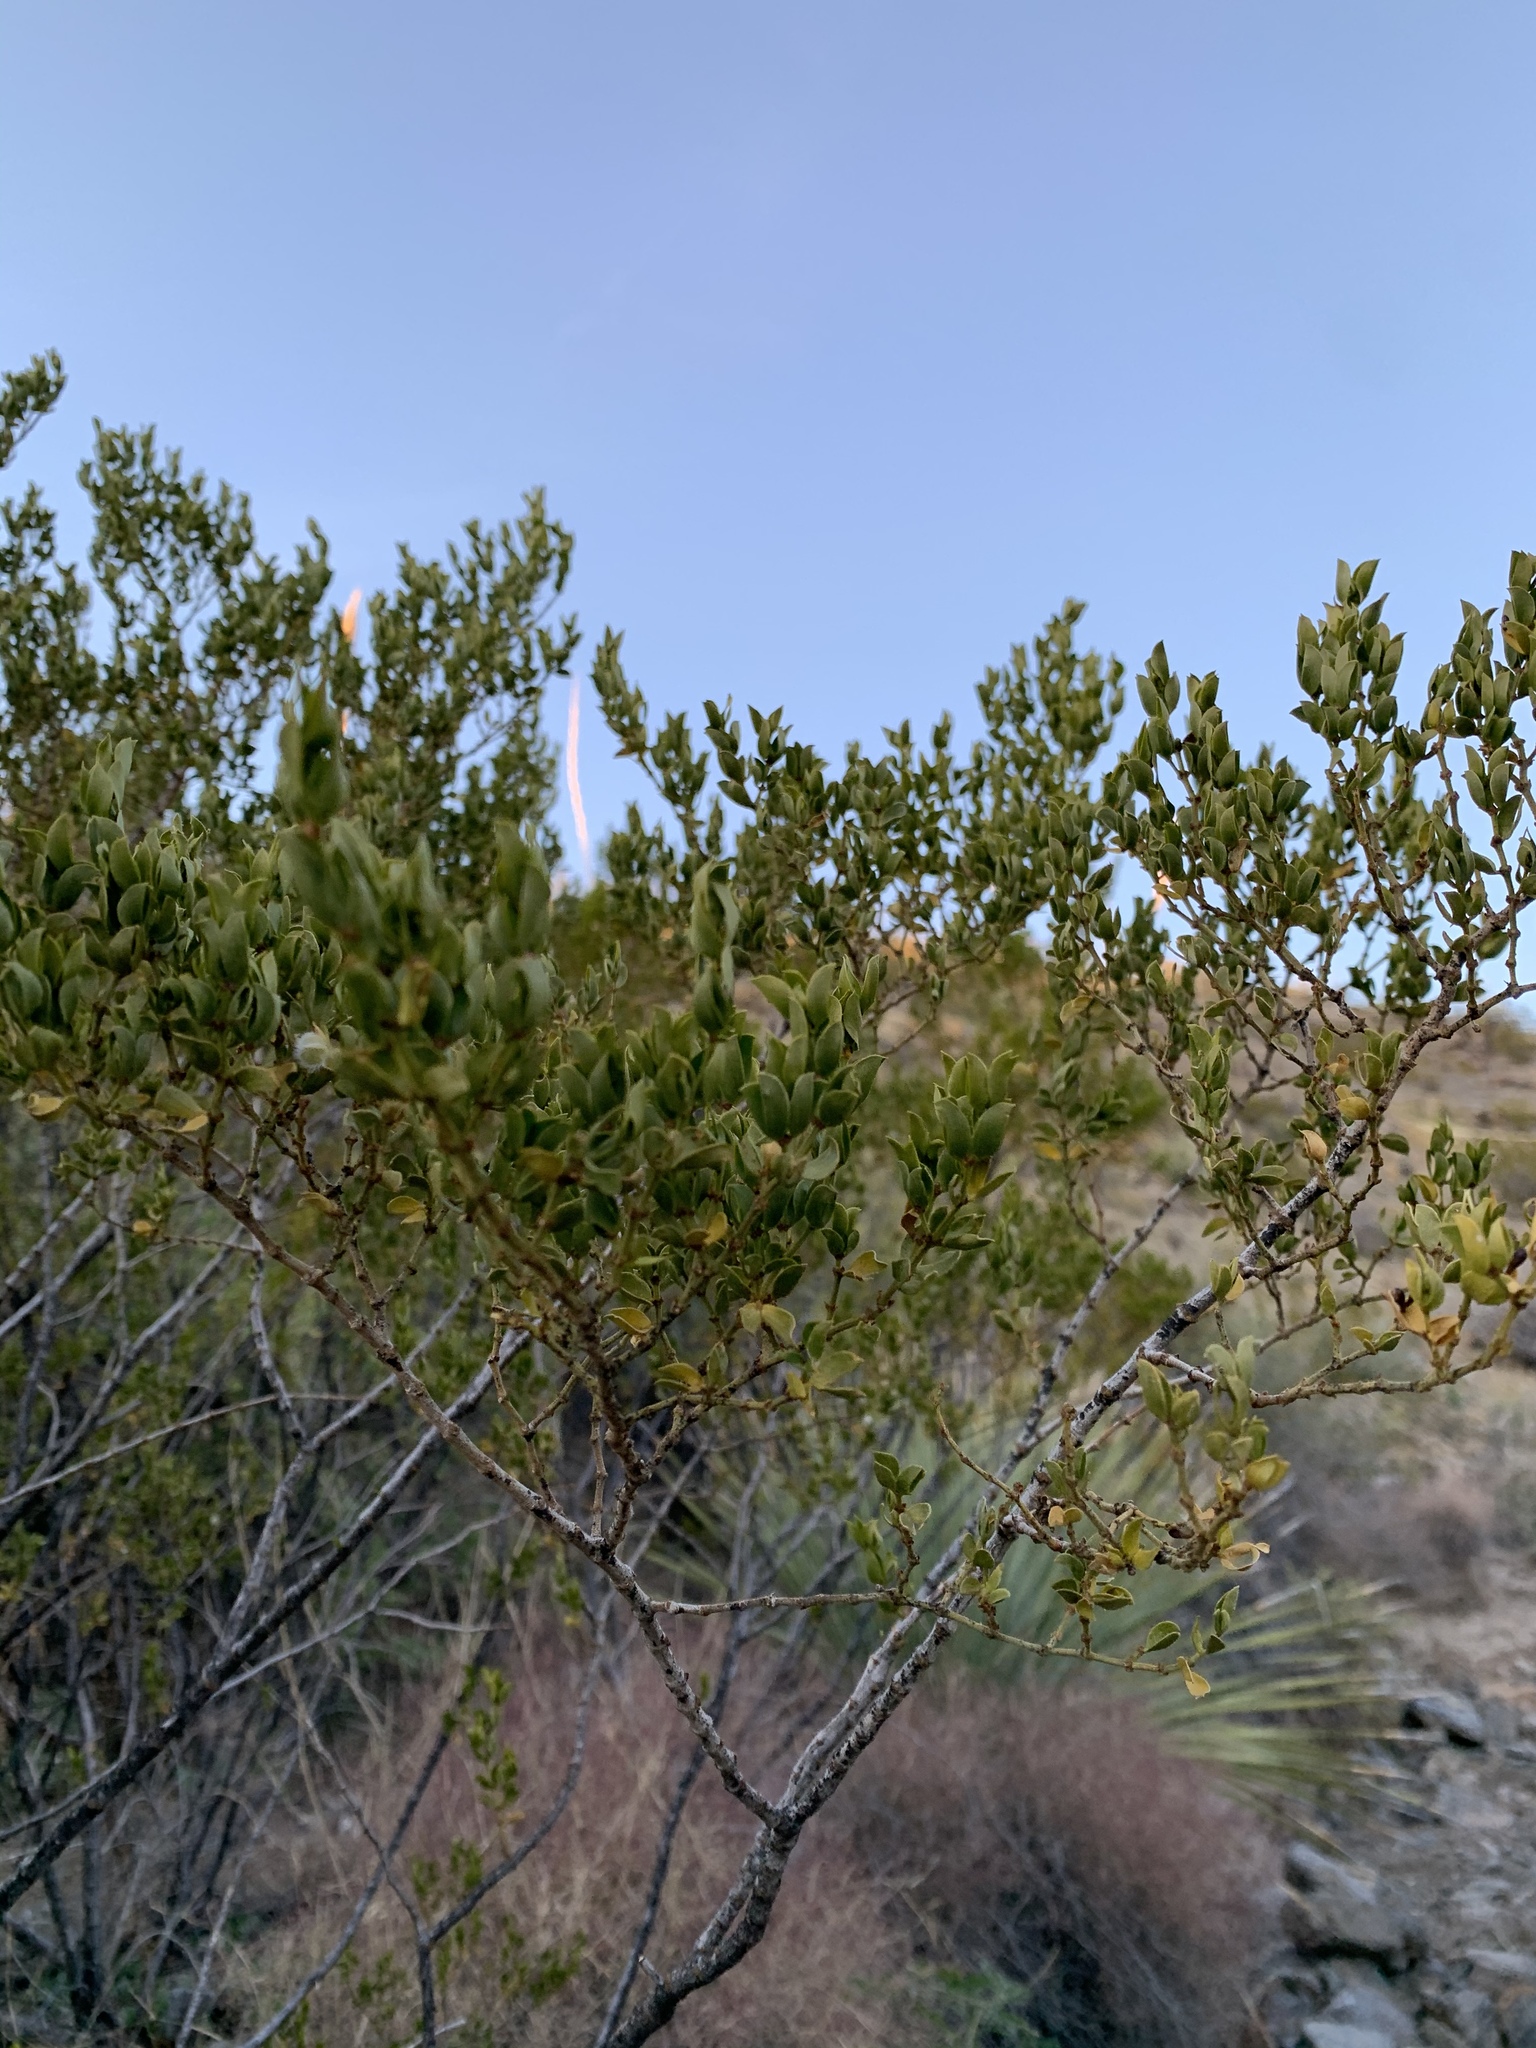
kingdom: Plantae
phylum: Tracheophyta
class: Magnoliopsida
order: Zygophyllales
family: Zygophyllaceae
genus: Larrea
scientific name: Larrea tridentata
